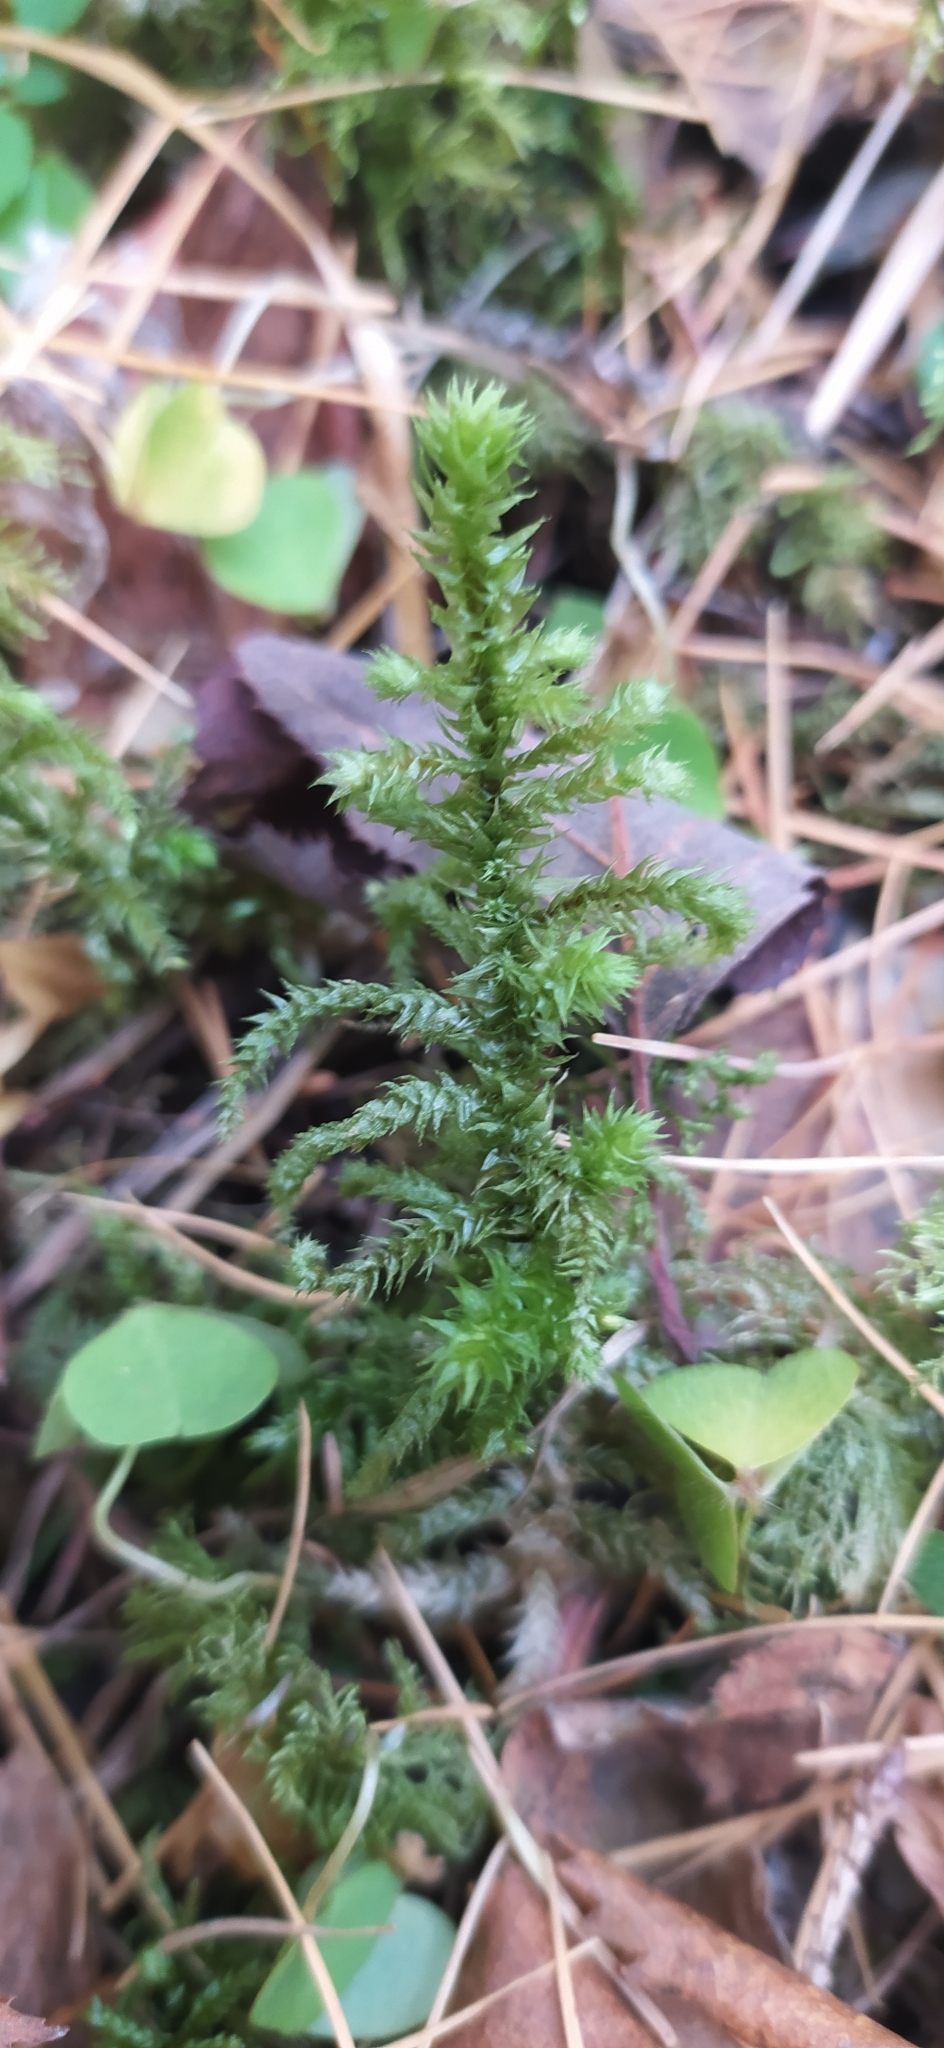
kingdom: Plantae
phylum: Bryophyta
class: Bryopsida
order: Hypnales
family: Hylocomiaceae
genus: Hylocomiadelphus
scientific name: Hylocomiadelphus triquetrus
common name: Rough goose neck moss
